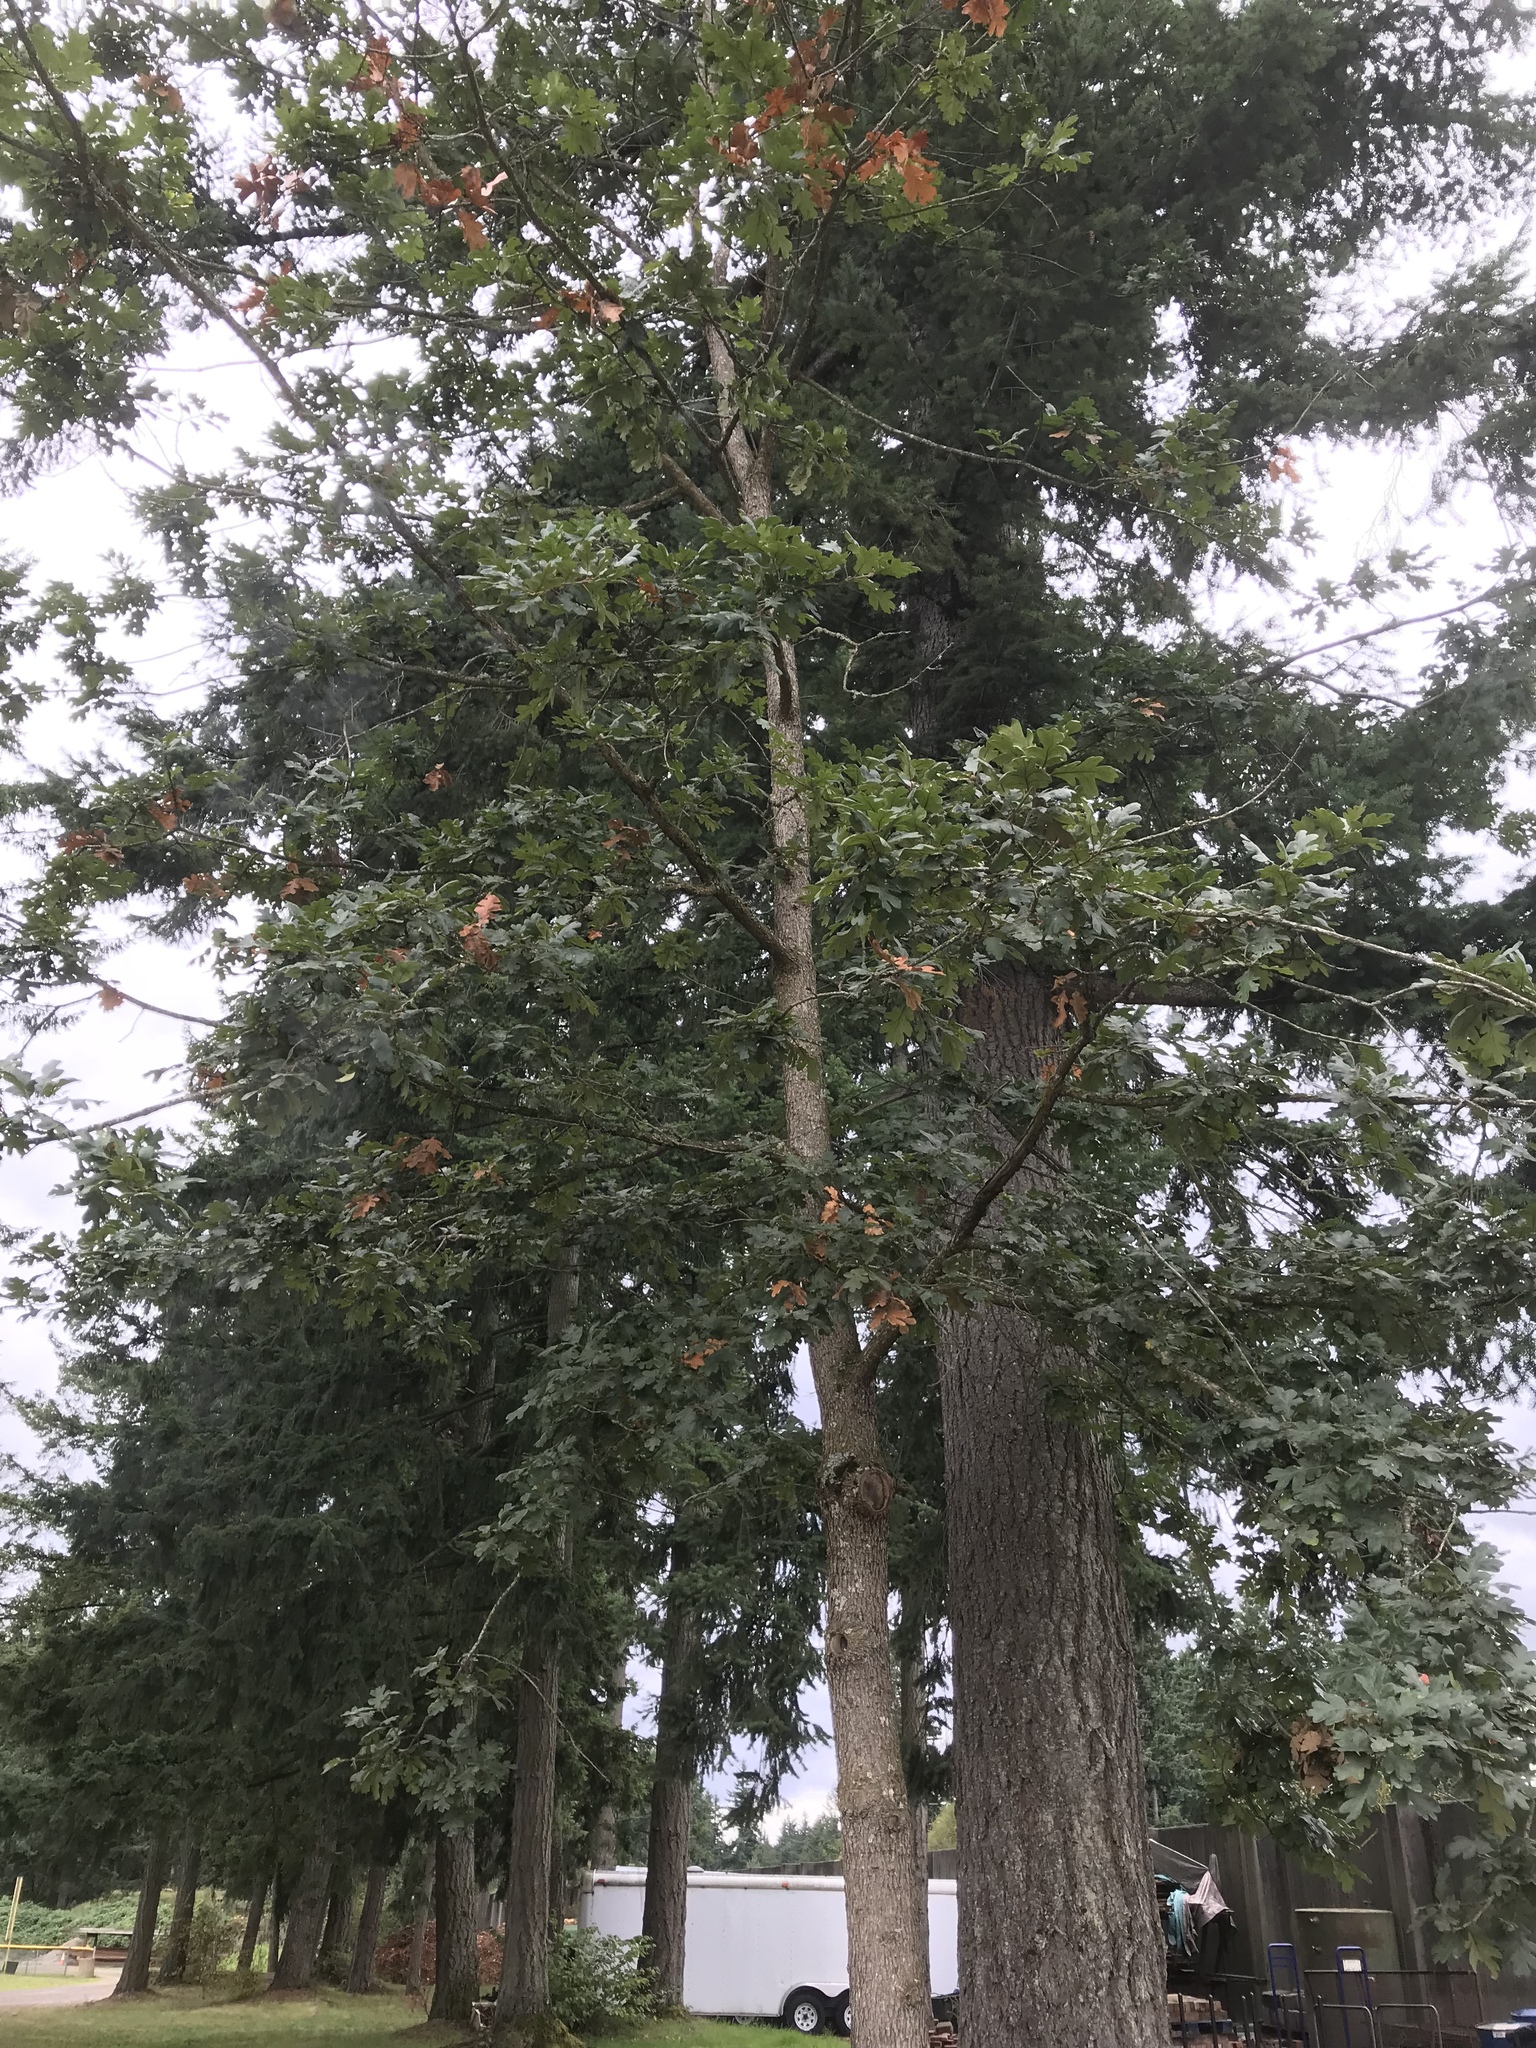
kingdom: Plantae
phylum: Tracheophyta
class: Magnoliopsida
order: Fagales
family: Fagaceae
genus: Quercus
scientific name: Quercus garryana
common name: Garry oak
